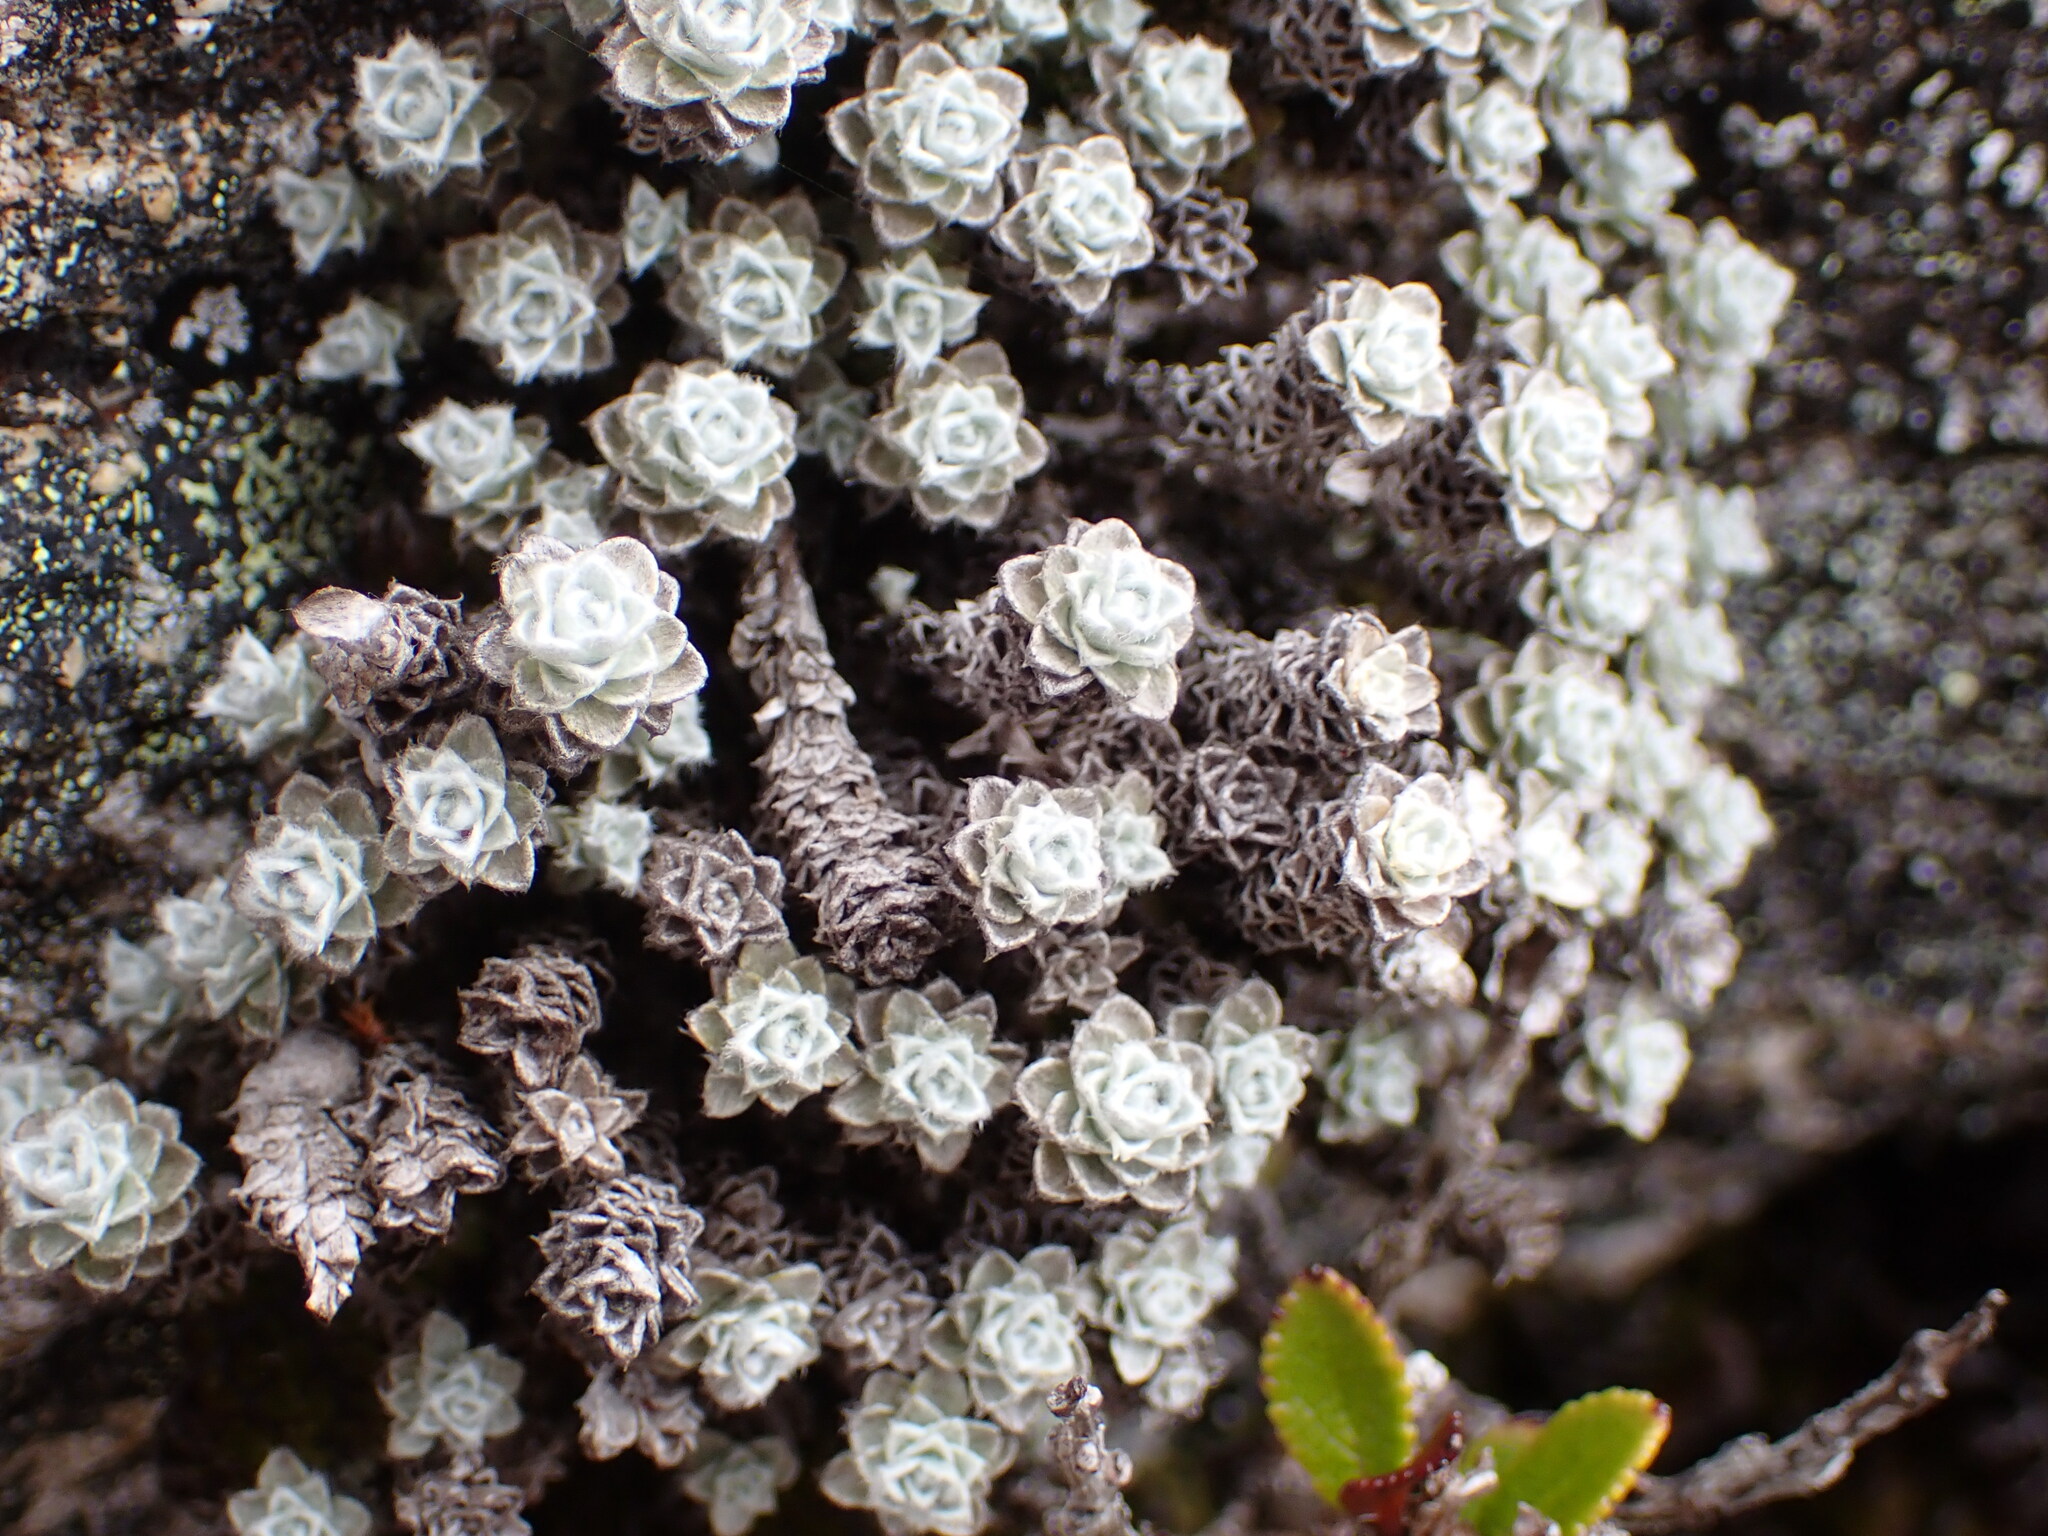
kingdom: Plantae
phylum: Tracheophyta
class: Magnoliopsida
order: Asterales
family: Asteraceae
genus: Leucogenes
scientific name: Leucogenes grandiceps
